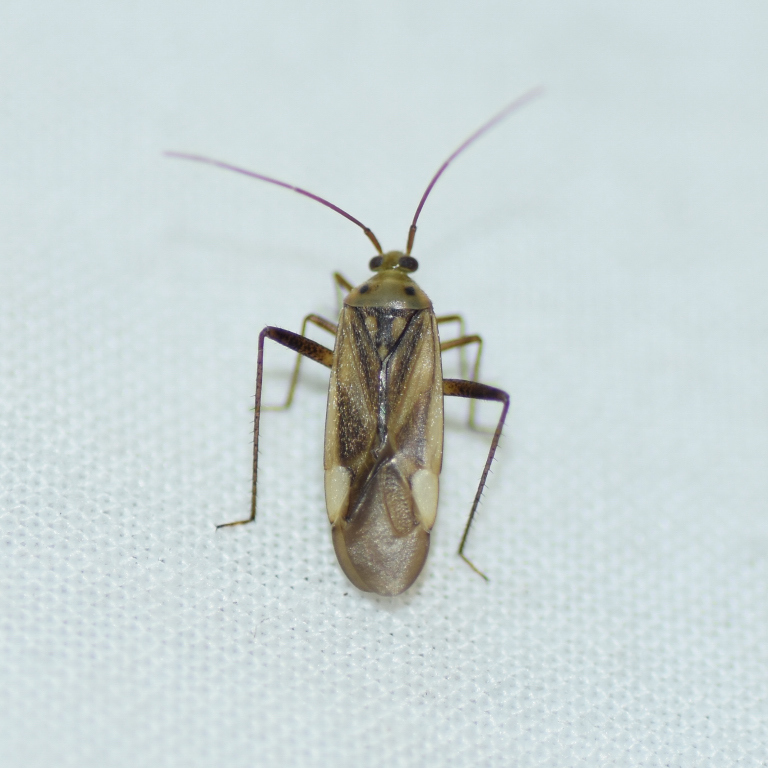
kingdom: Animalia
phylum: Arthropoda
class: Insecta
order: Hemiptera
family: Miridae
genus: Adelphocoris
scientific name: Adelphocoris lineolatus
